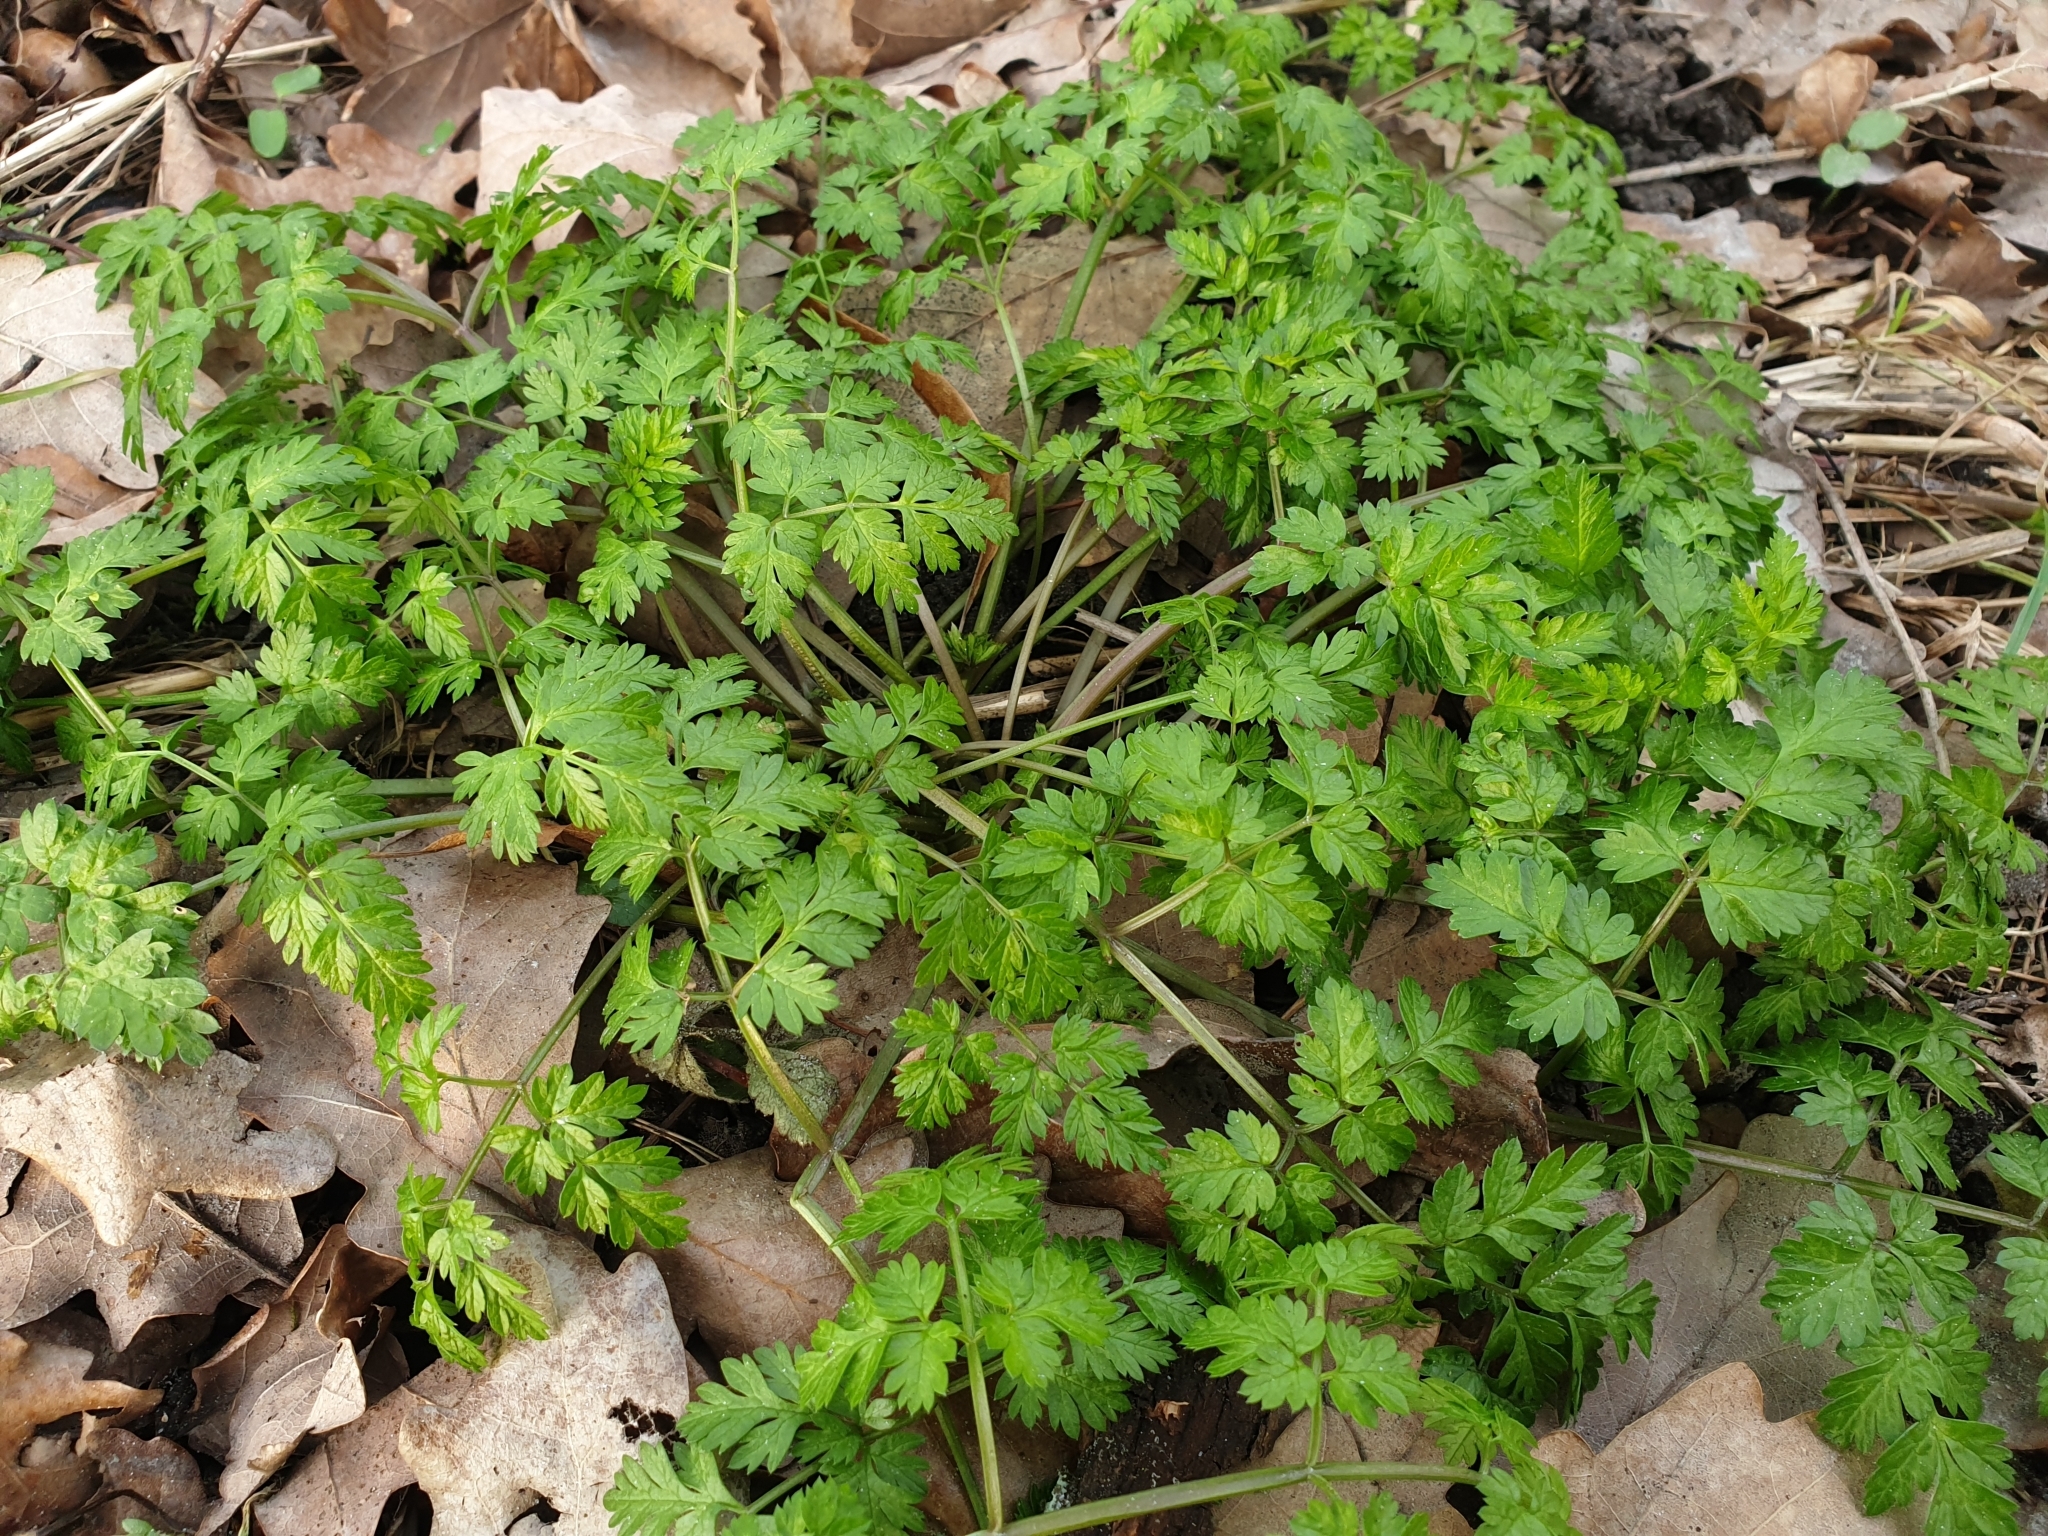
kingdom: Plantae
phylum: Tracheophyta
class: Magnoliopsida
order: Apiales
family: Apiaceae
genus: Anthriscus
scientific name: Anthriscus sylvestris
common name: Cow parsley
